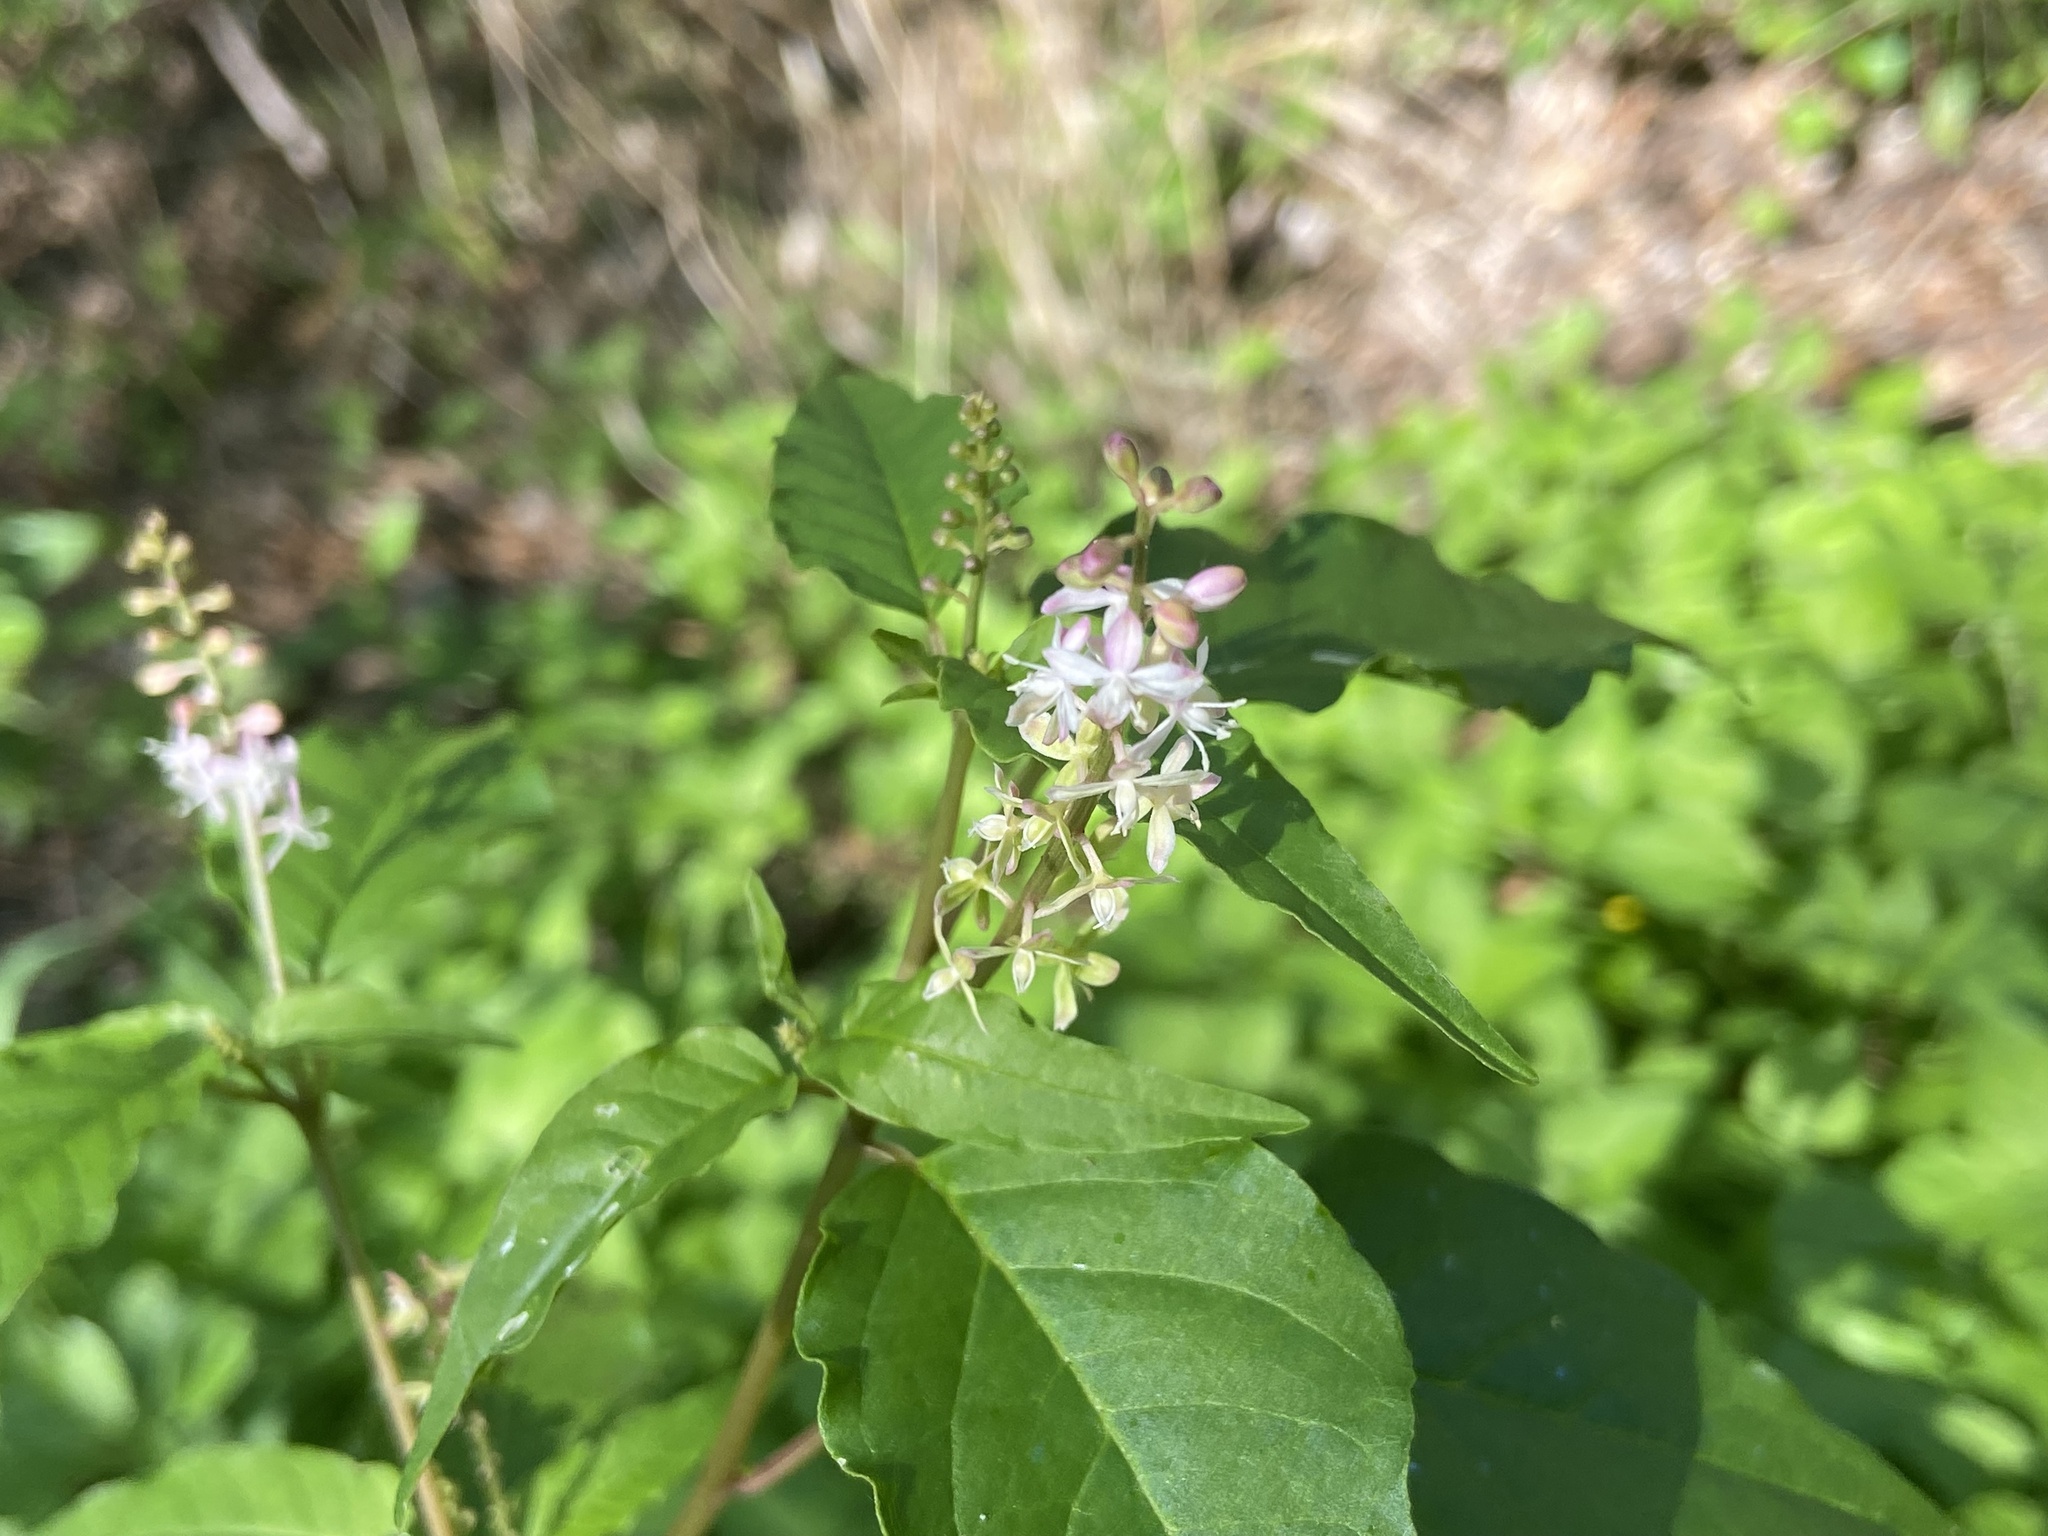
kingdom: Plantae
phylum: Tracheophyta
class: Magnoliopsida
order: Caryophyllales
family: Phytolaccaceae
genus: Rivina
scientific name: Rivina humilis
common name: Rougeplant
